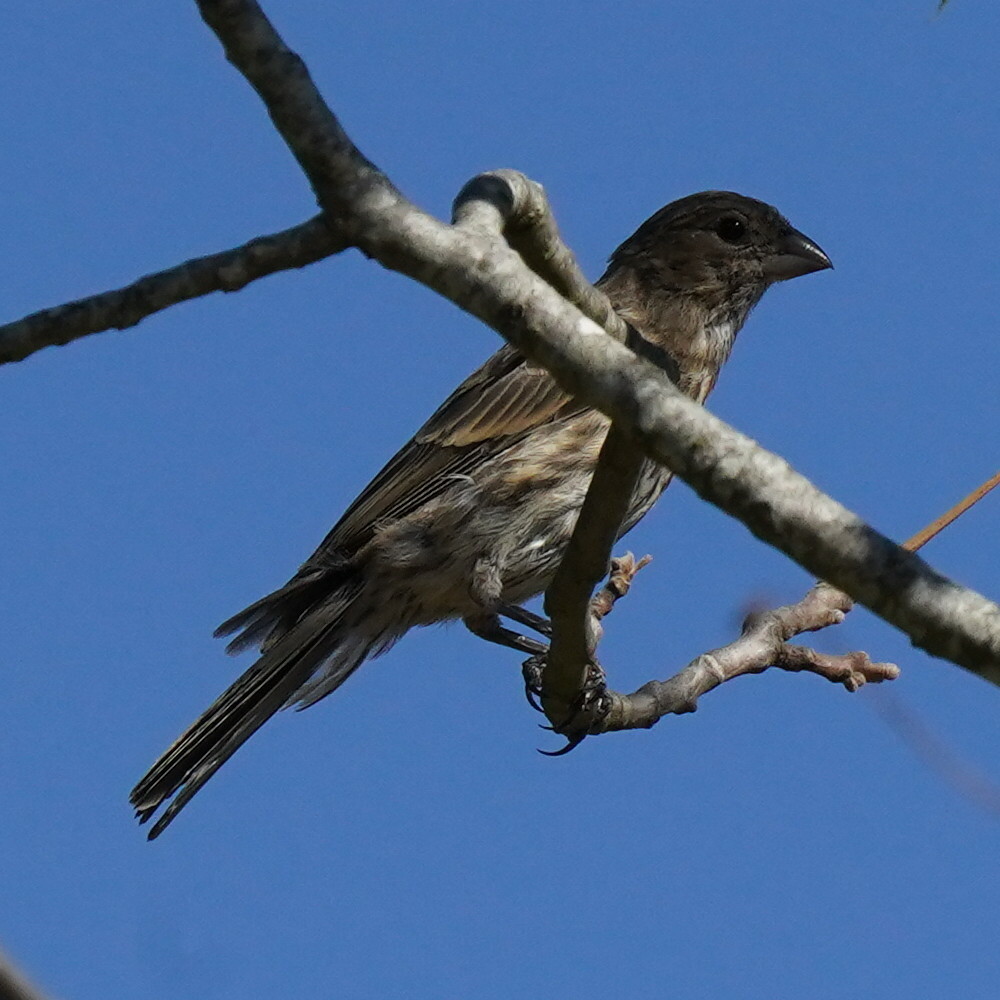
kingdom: Animalia
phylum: Chordata
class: Aves
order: Passeriformes
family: Fringillidae
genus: Haemorhous
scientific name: Haemorhous mexicanus
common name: House finch
